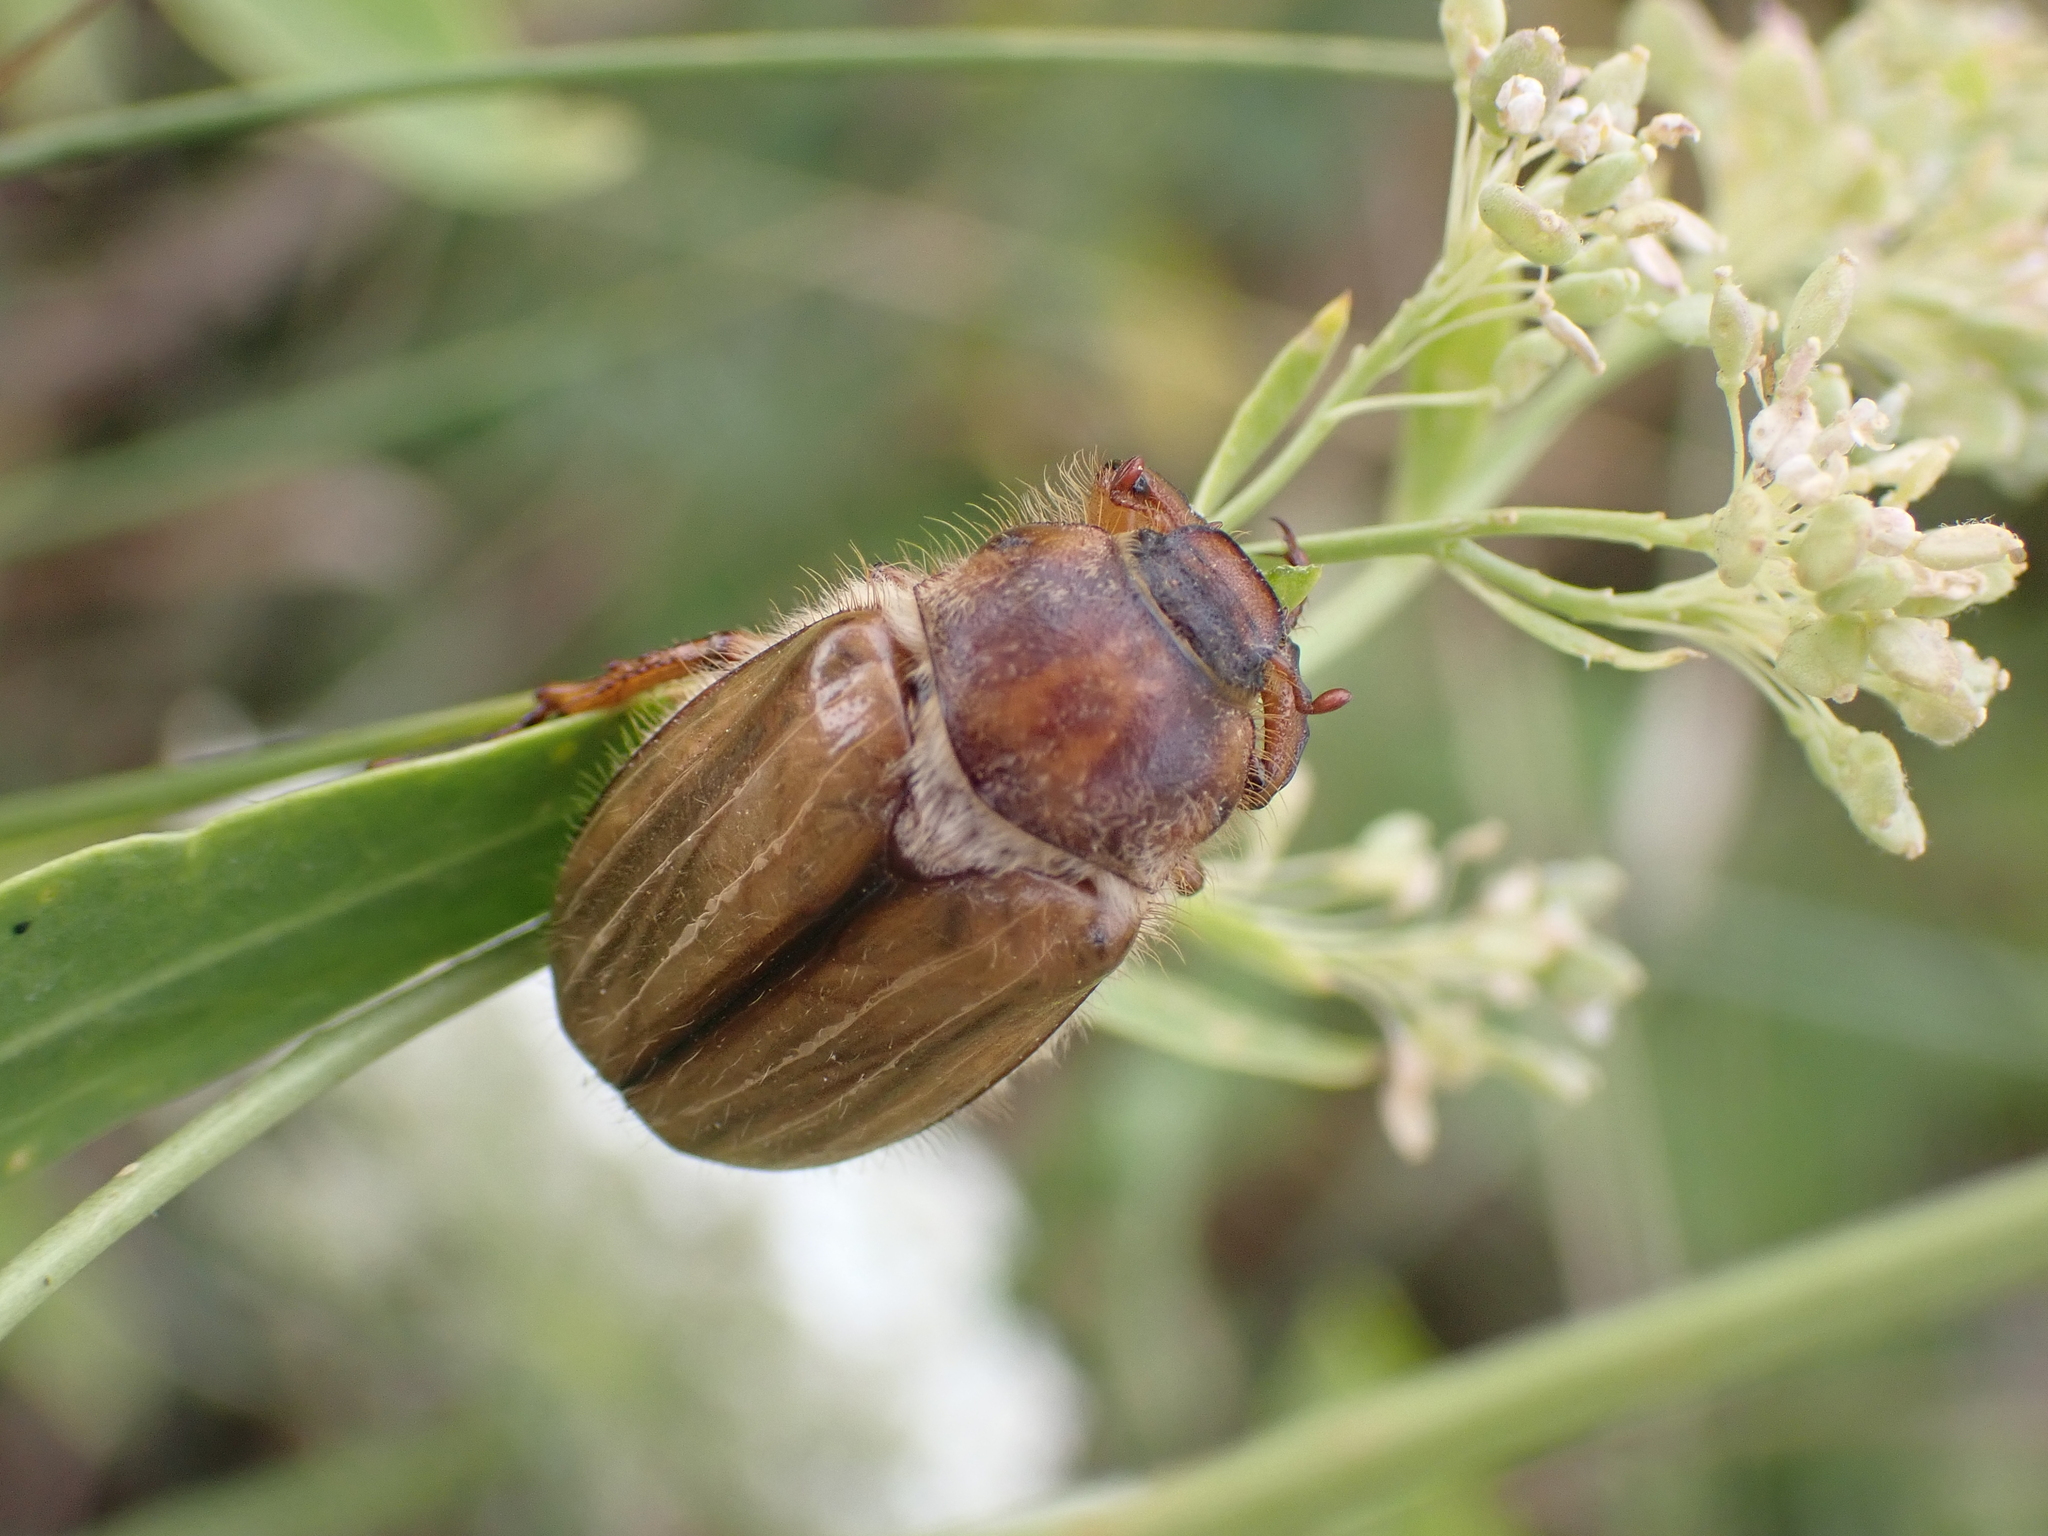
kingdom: Animalia
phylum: Arthropoda
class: Insecta
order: Coleoptera
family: Scarabaeidae
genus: Amphimallon
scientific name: Amphimallon solstitiale
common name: Summer chafer
